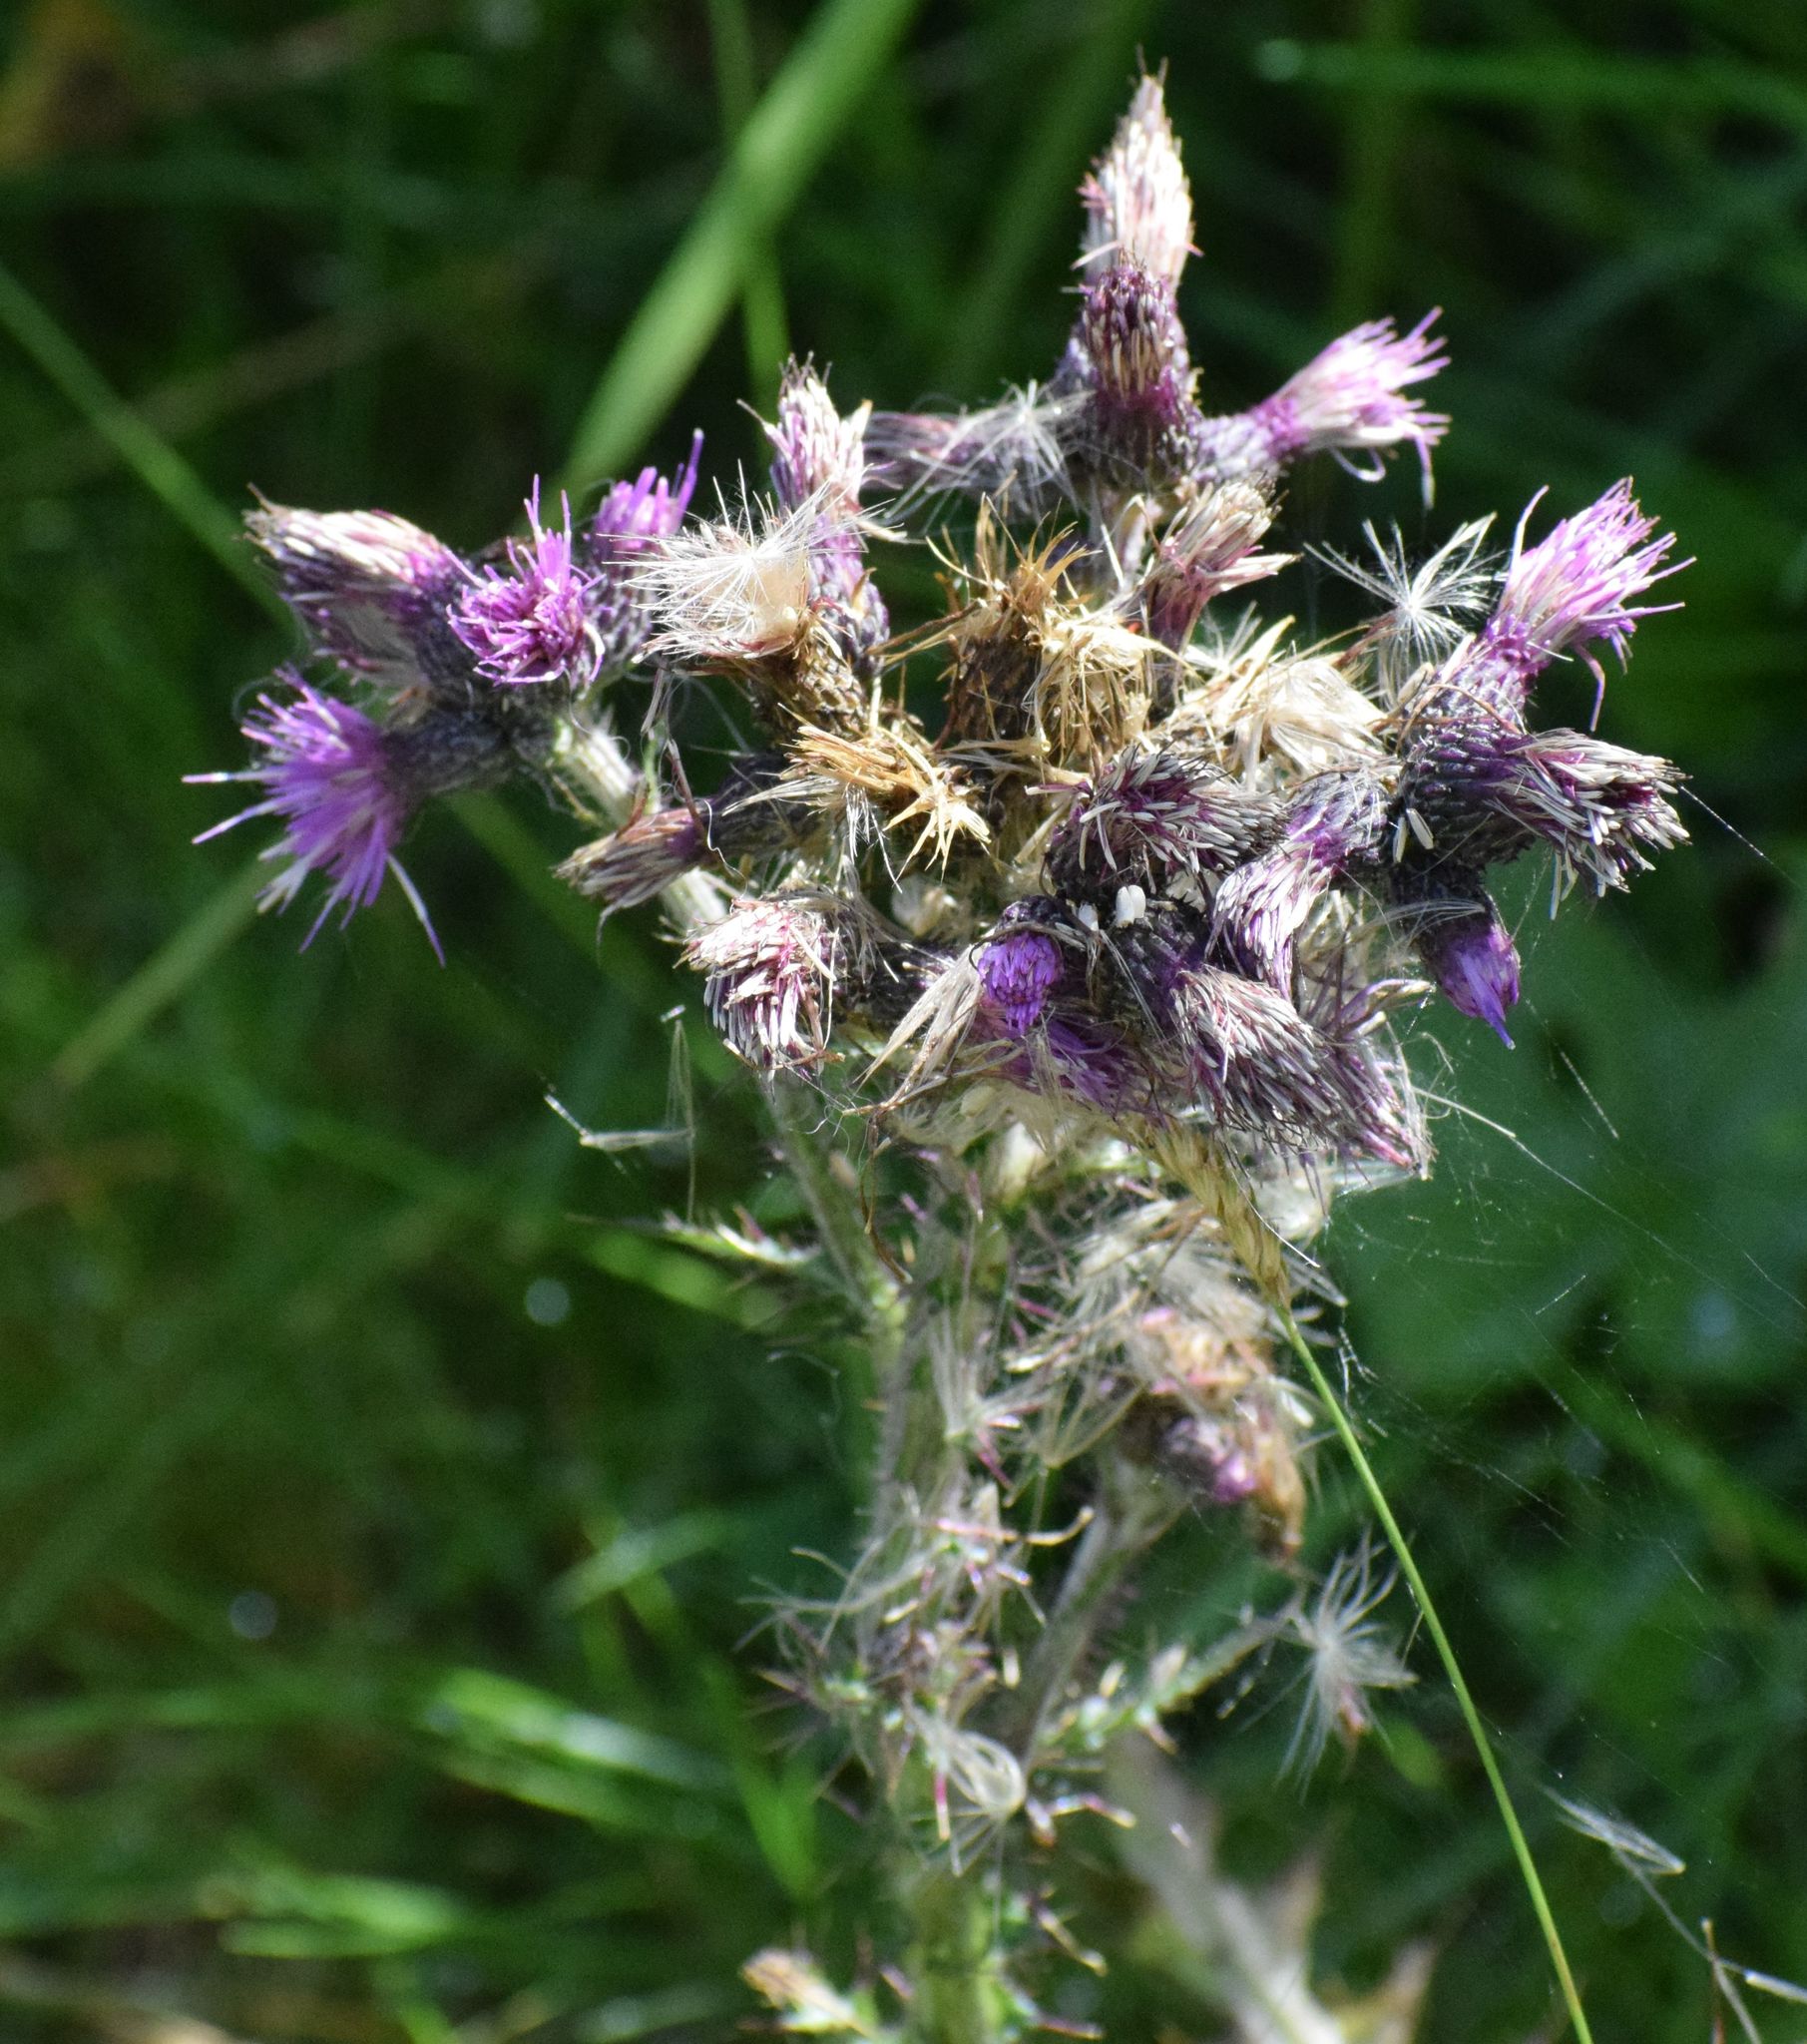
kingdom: Plantae
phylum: Tracheophyta
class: Magnoliopsida
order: Asterales
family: Asteraceae
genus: Cirsium
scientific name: Cirsium palustre
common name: Marsh thistle
